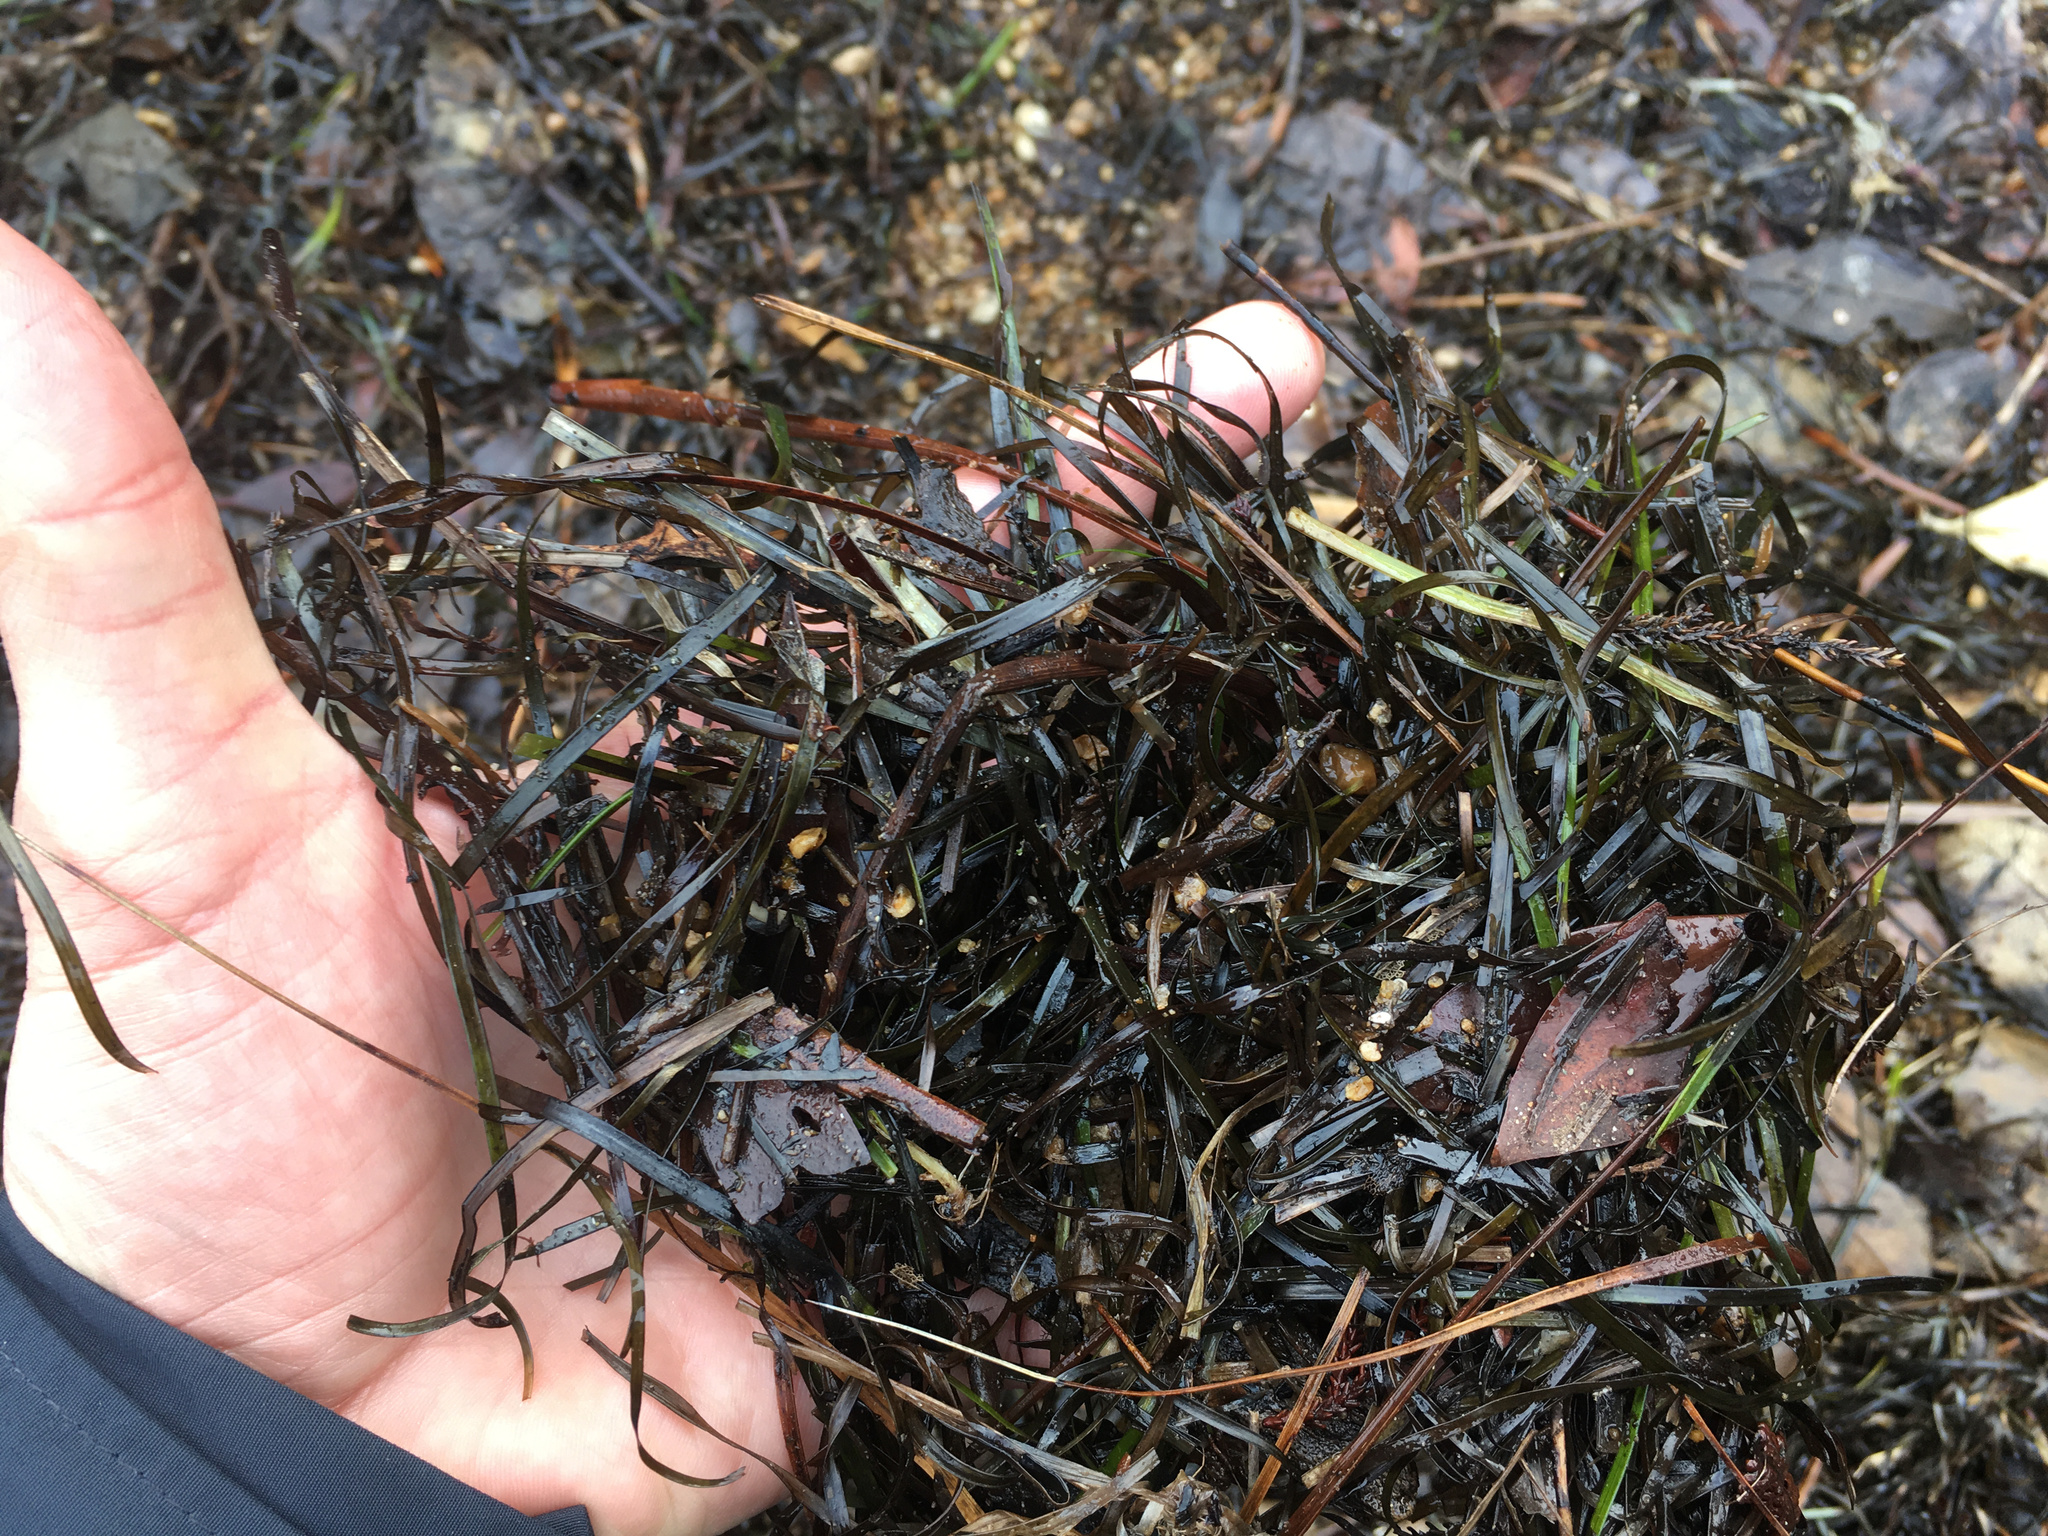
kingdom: Plantae
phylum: Tracheophyta
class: Liliopsida
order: Alismatales
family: Zosteraceae
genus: Zostera
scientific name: Zostera novazelandica
